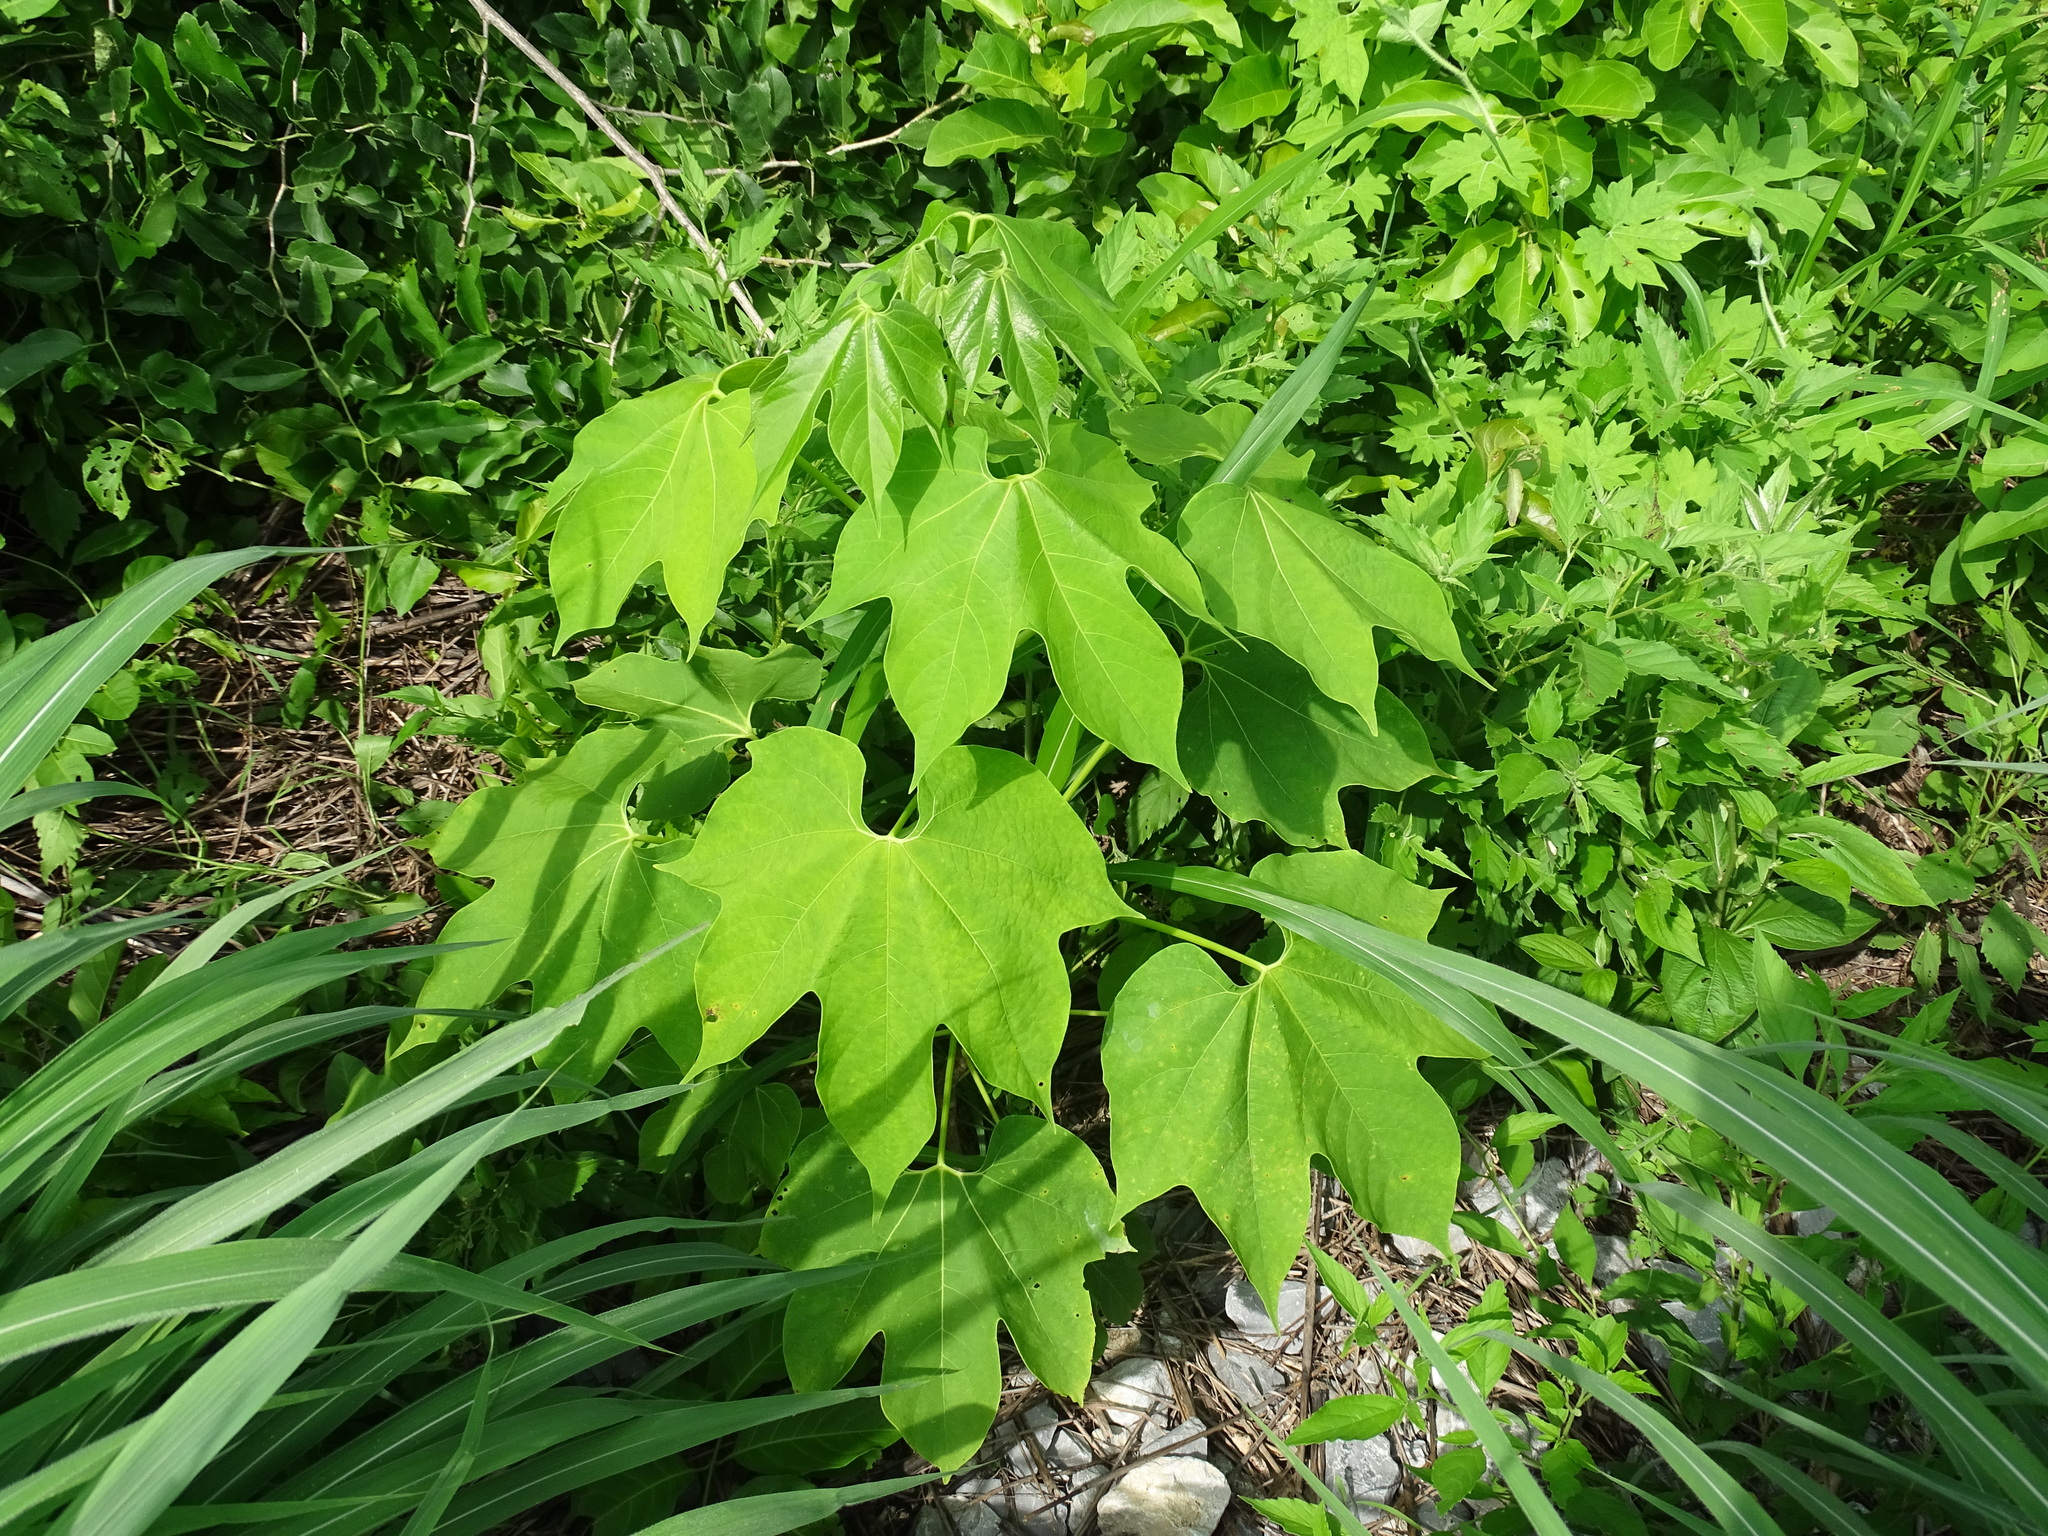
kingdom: Plantae
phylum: Tracheophyta
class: Magnoliopsida
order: Laurales
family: Hernandiaceae
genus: Gyrocarpus
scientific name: Gyrocarpus jatrophifolius
